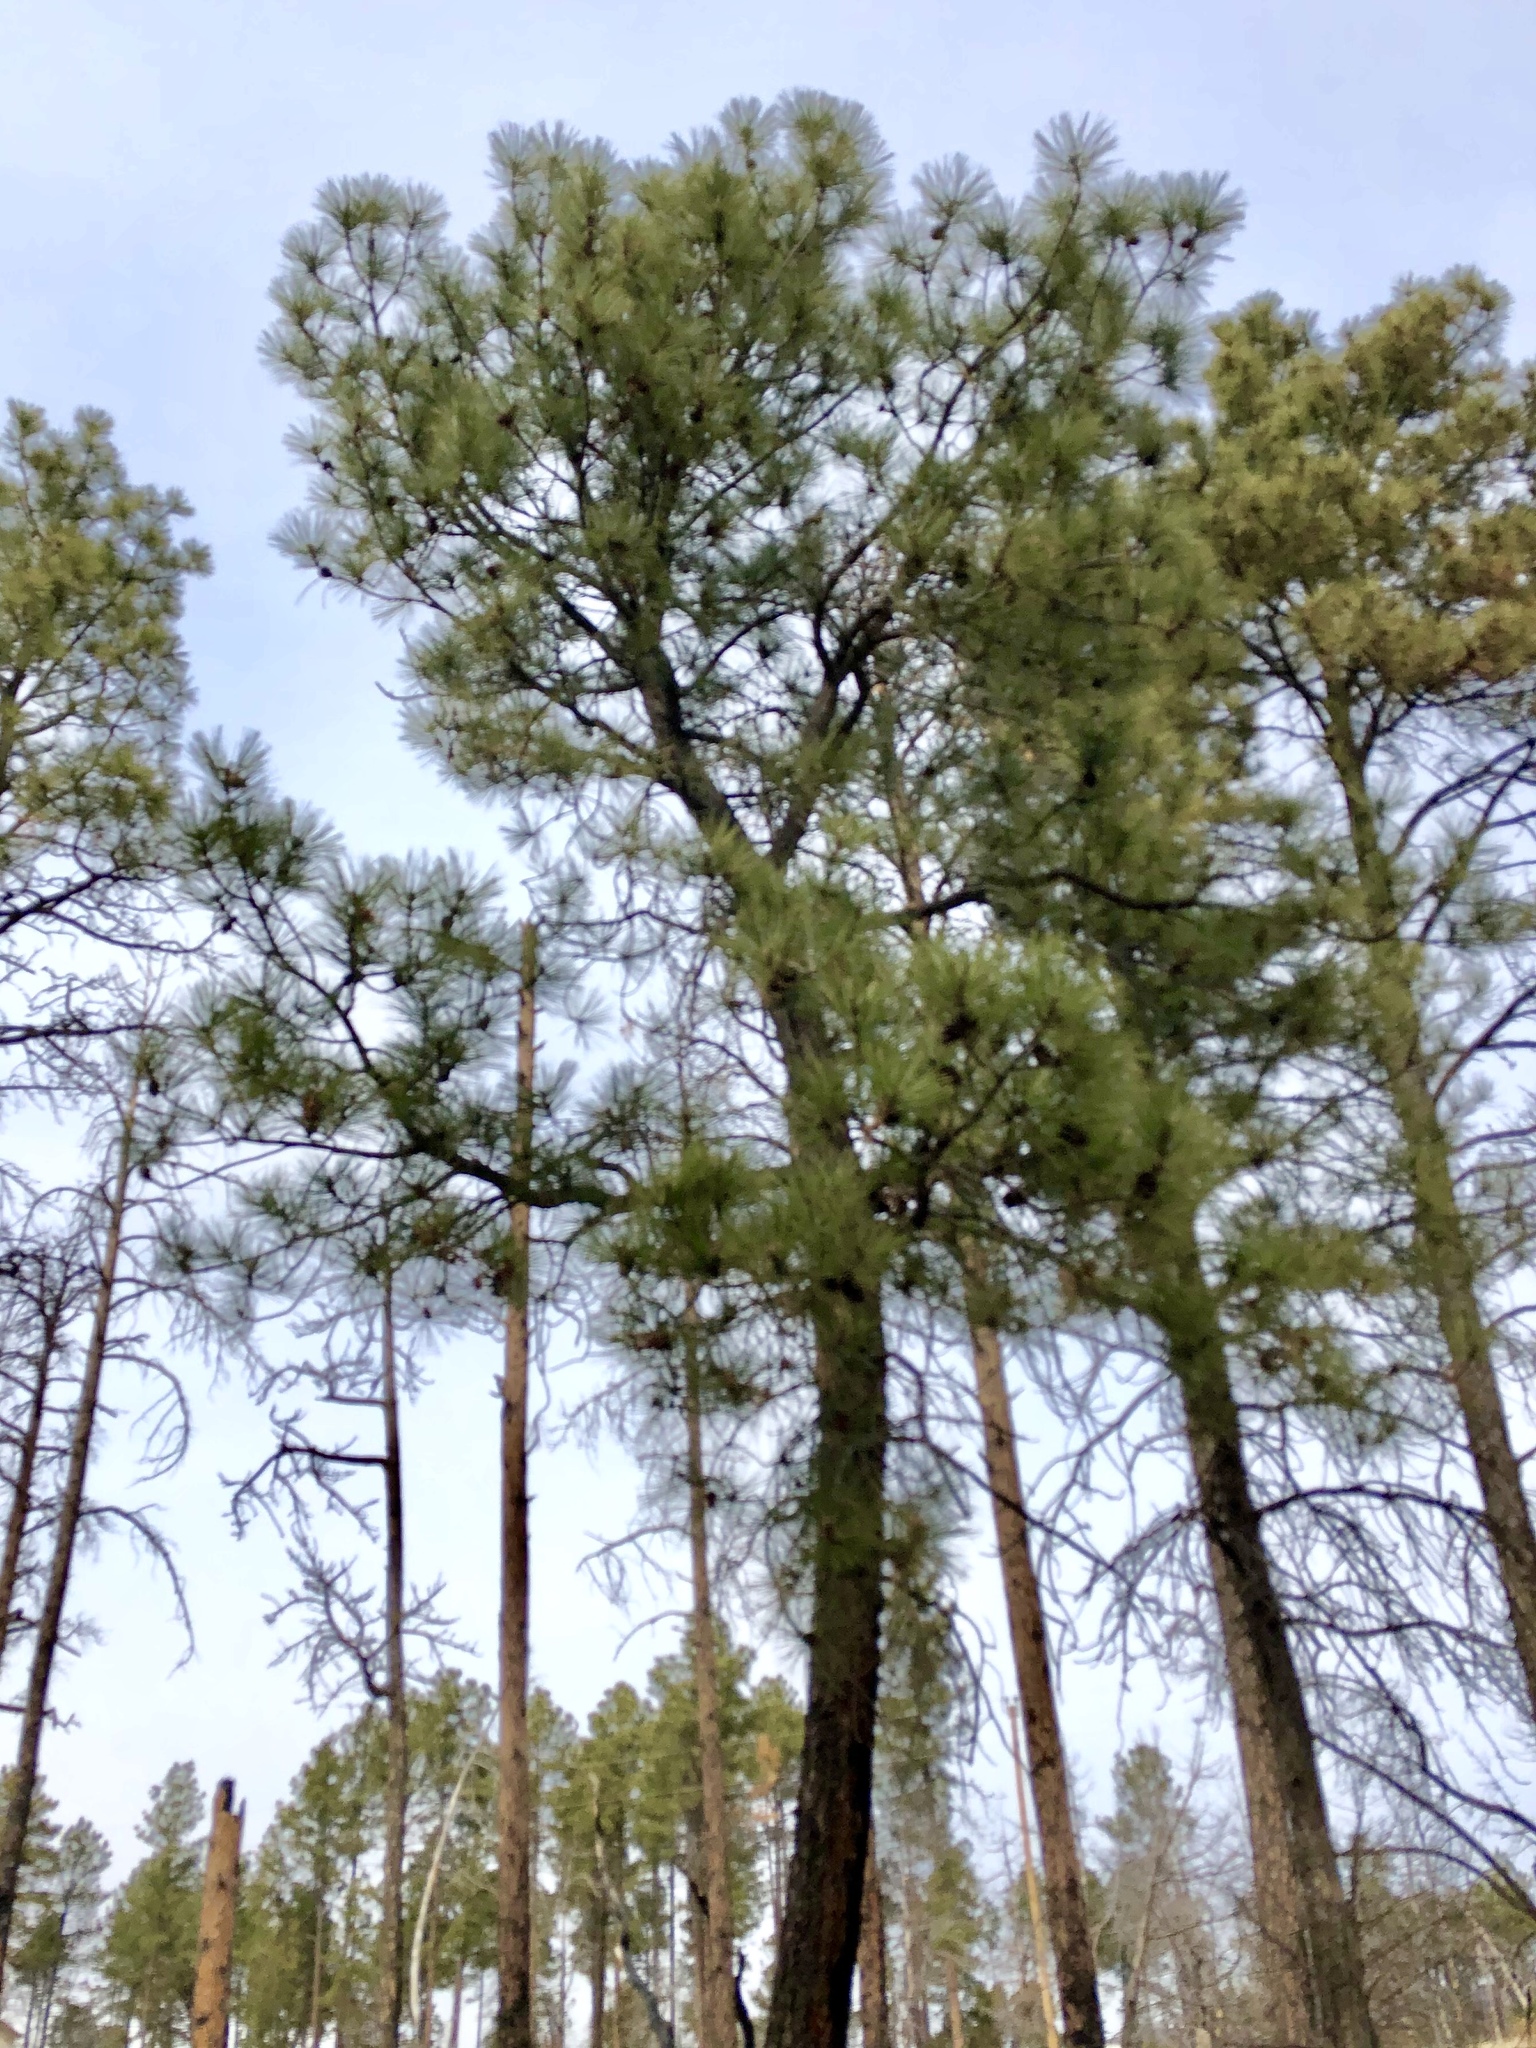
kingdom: Plantae
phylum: Tracheophyta
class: Pinopsida
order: Pinales
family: Pinaceae
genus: Pinus
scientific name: Pinus ponderosa
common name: Western yellow-pine
